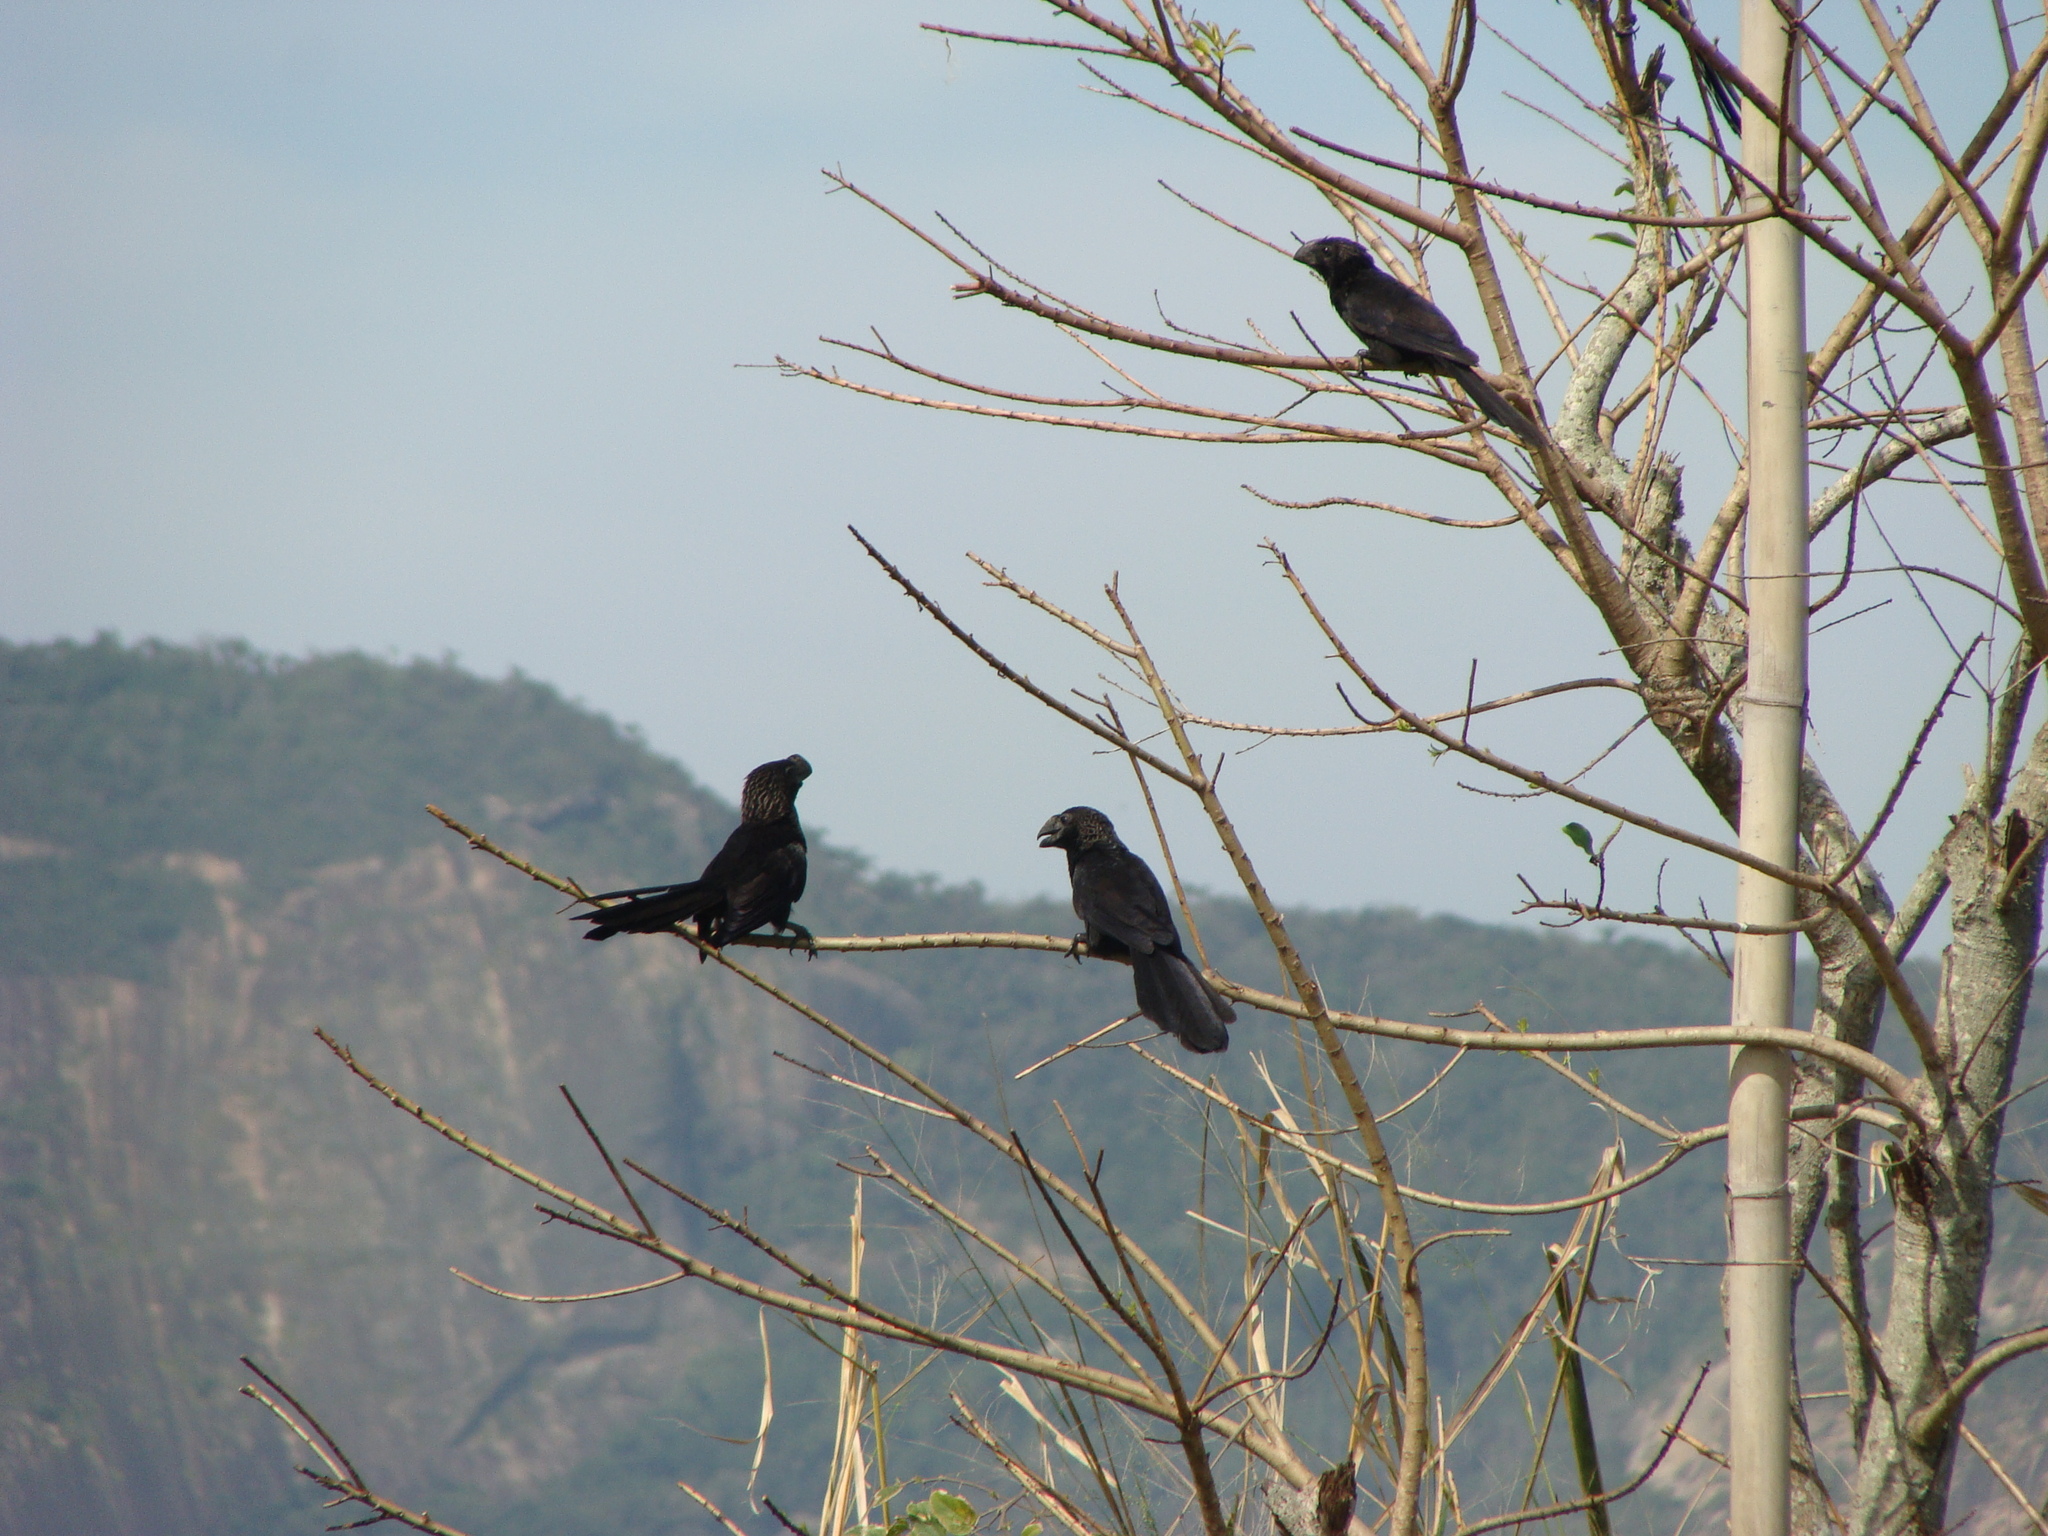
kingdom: Animalia
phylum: Chordata
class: Aves
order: Cuculiformes
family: Cuculidae
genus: Crotophaga
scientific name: Crotophaga ani
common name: Smooth-billed ani
